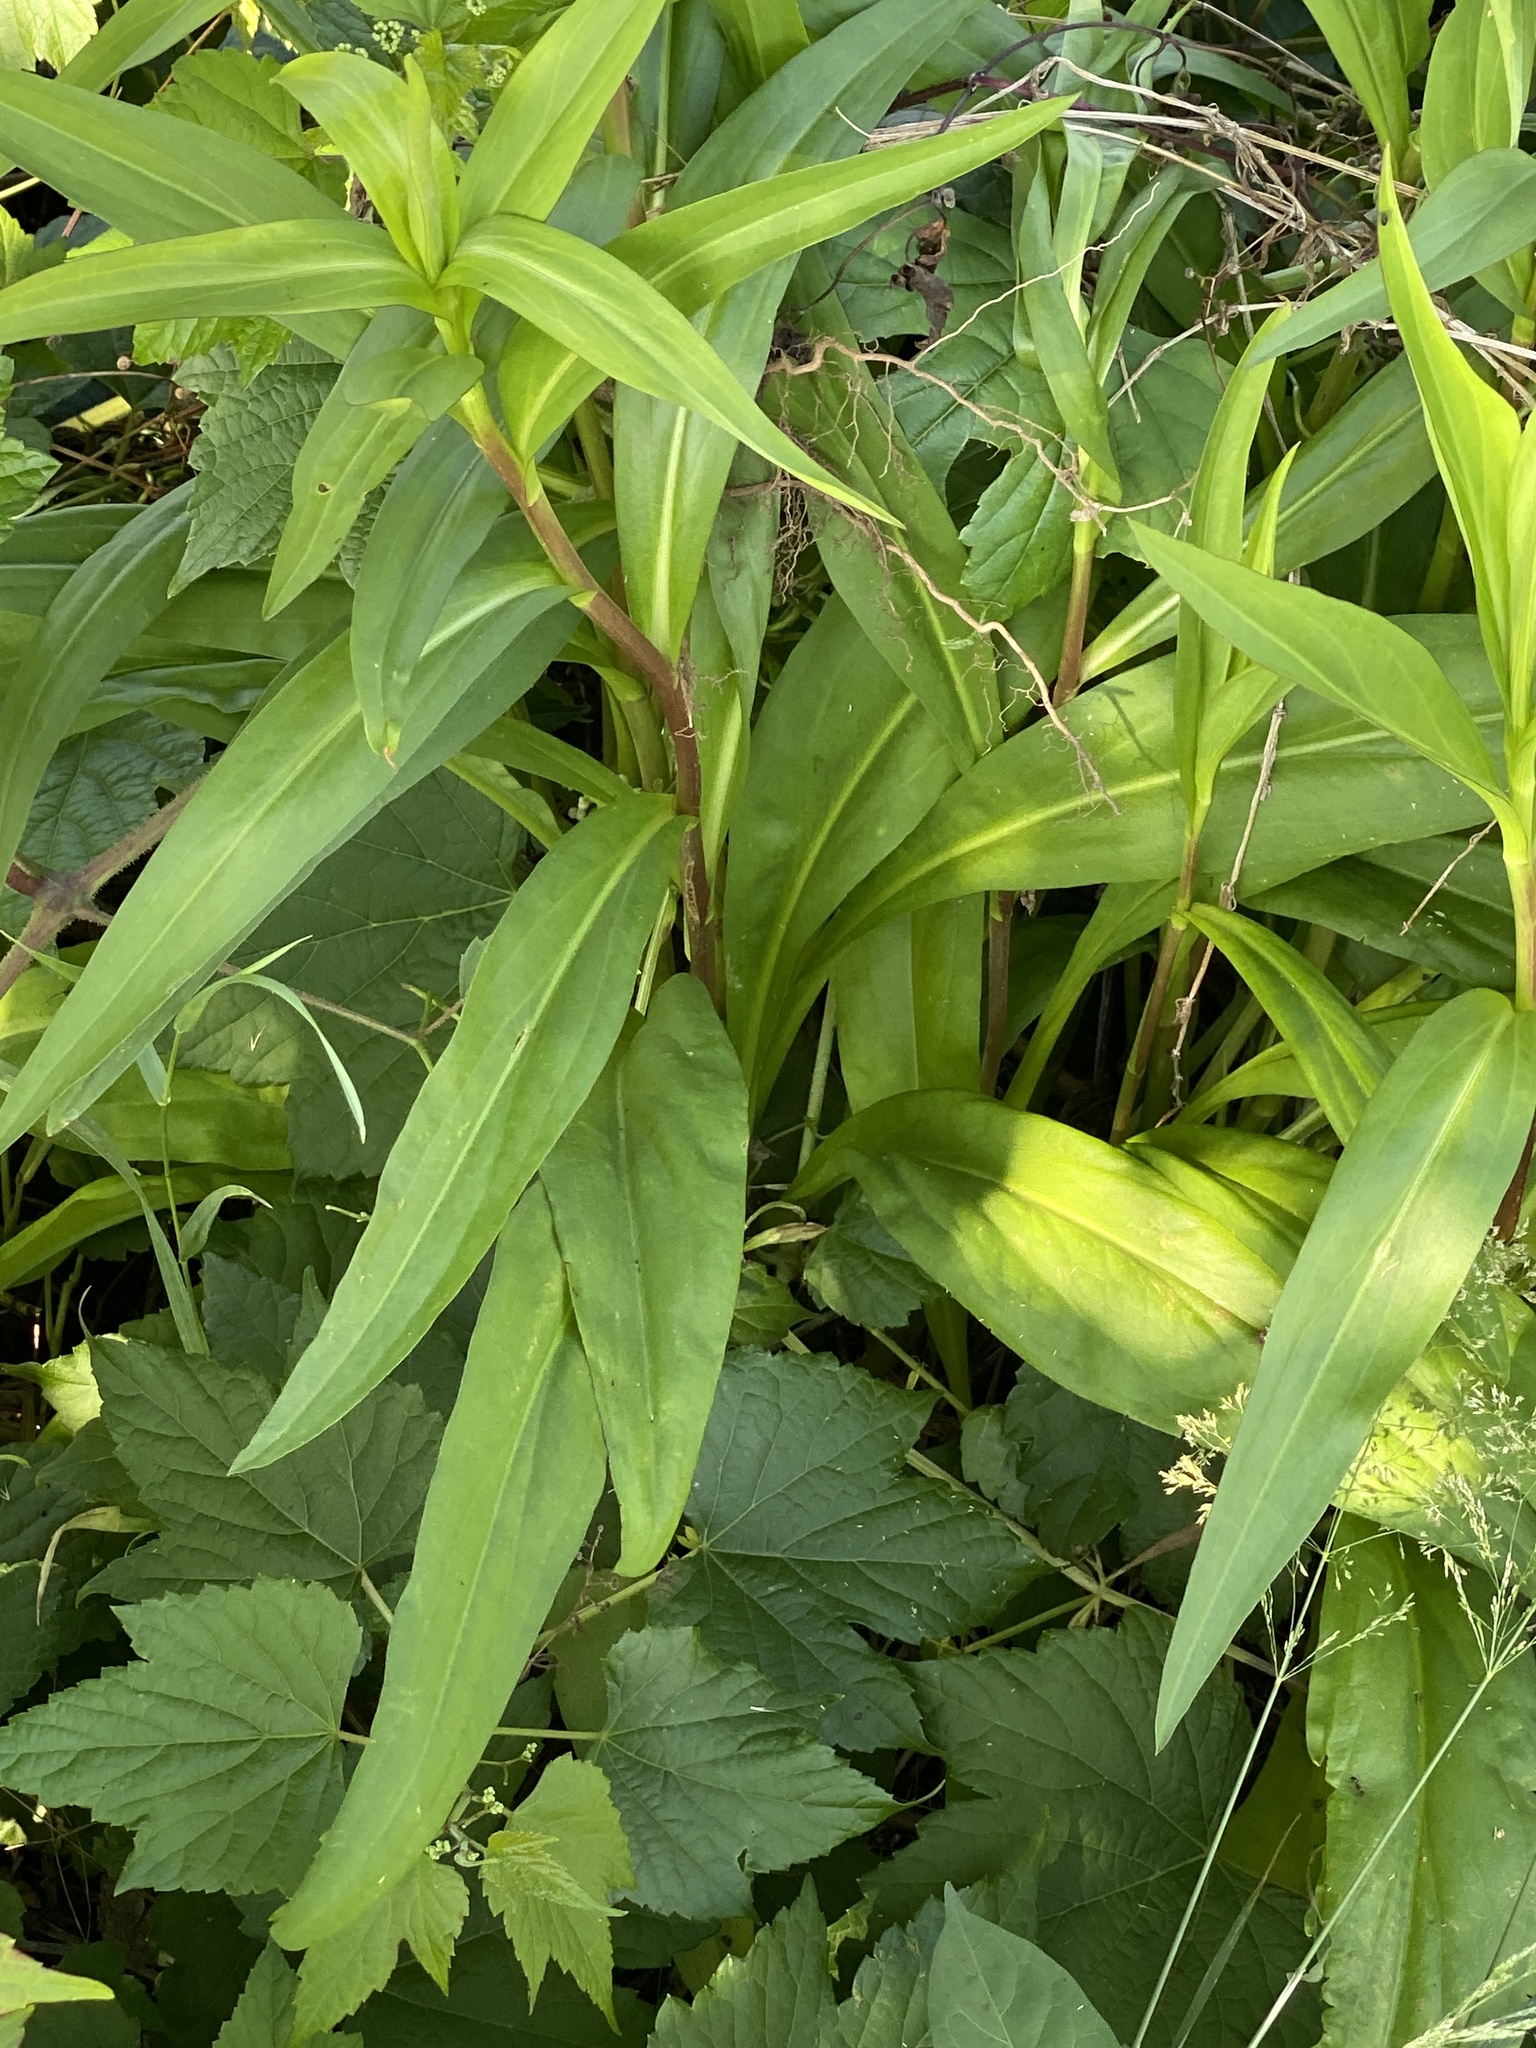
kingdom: Plantae
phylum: Tracheophyta
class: Magnoliopsida
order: Asterales
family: Asteraceae
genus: Solidago
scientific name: Solidago sempervirens
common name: Salt-marsh goldenrod
